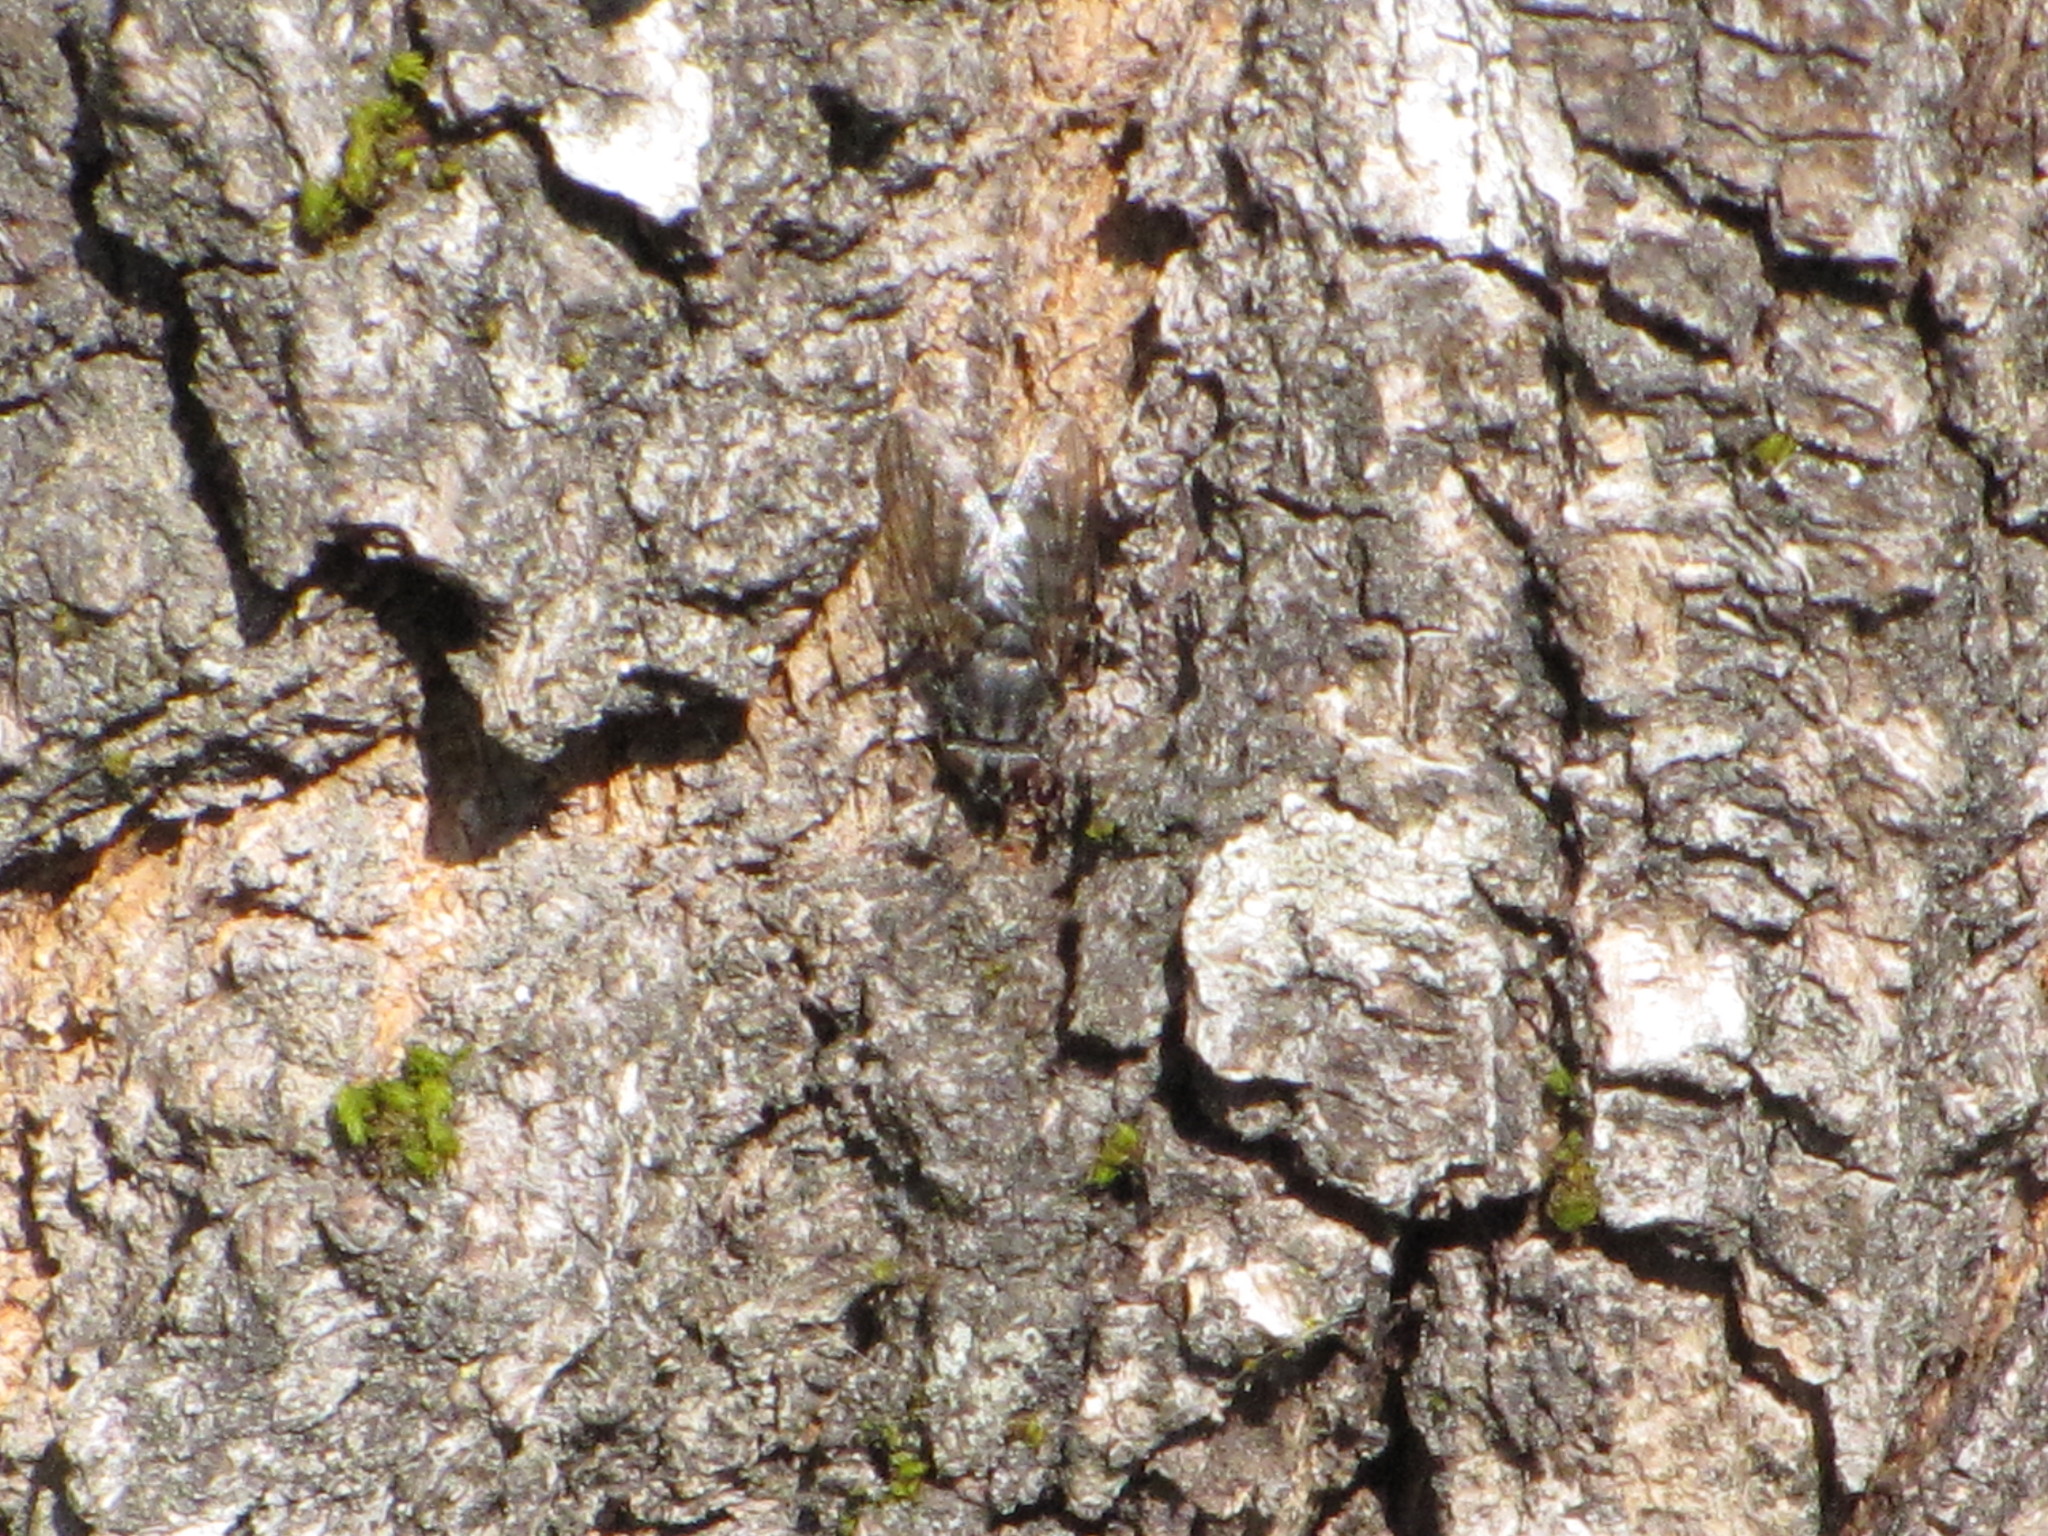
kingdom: Animalia
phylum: Arthropoda
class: Insecta
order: Diptera
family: Polleniidae
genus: Pollenia
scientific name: Pollenia vagabunda
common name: Vagabund cluster fly
